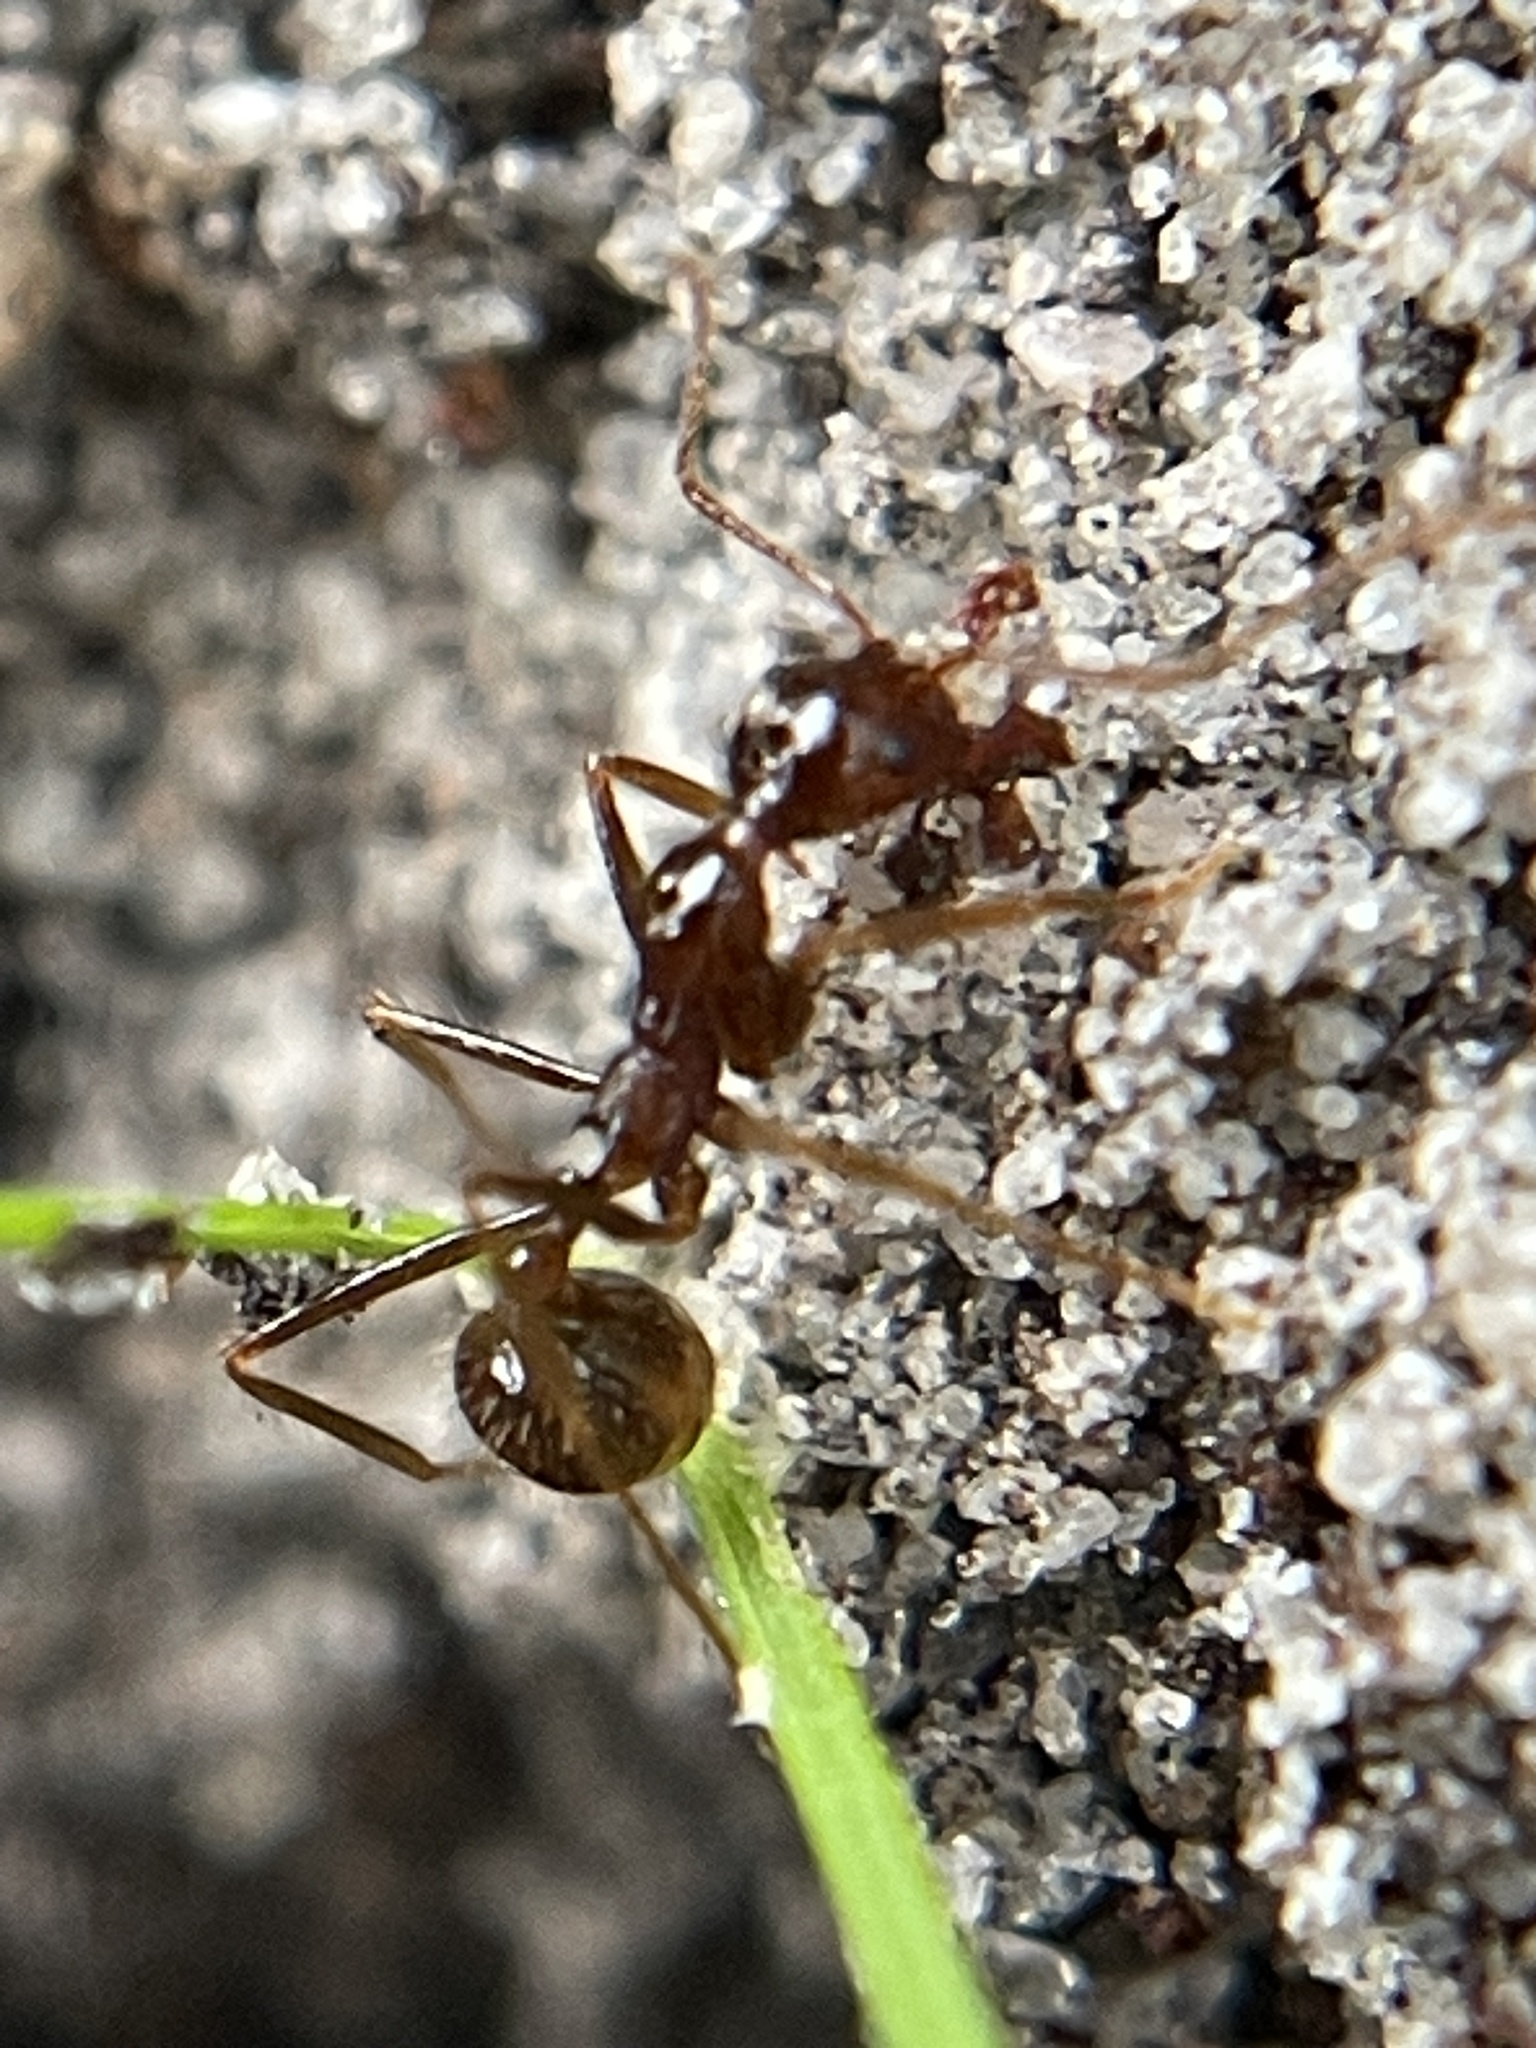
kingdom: Animalia
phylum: Arthropoda
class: Insecta
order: Hymenoptera
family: Formicidae
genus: Aphaenogaster
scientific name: Aphaenogaster longiceps
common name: Funnel ant
